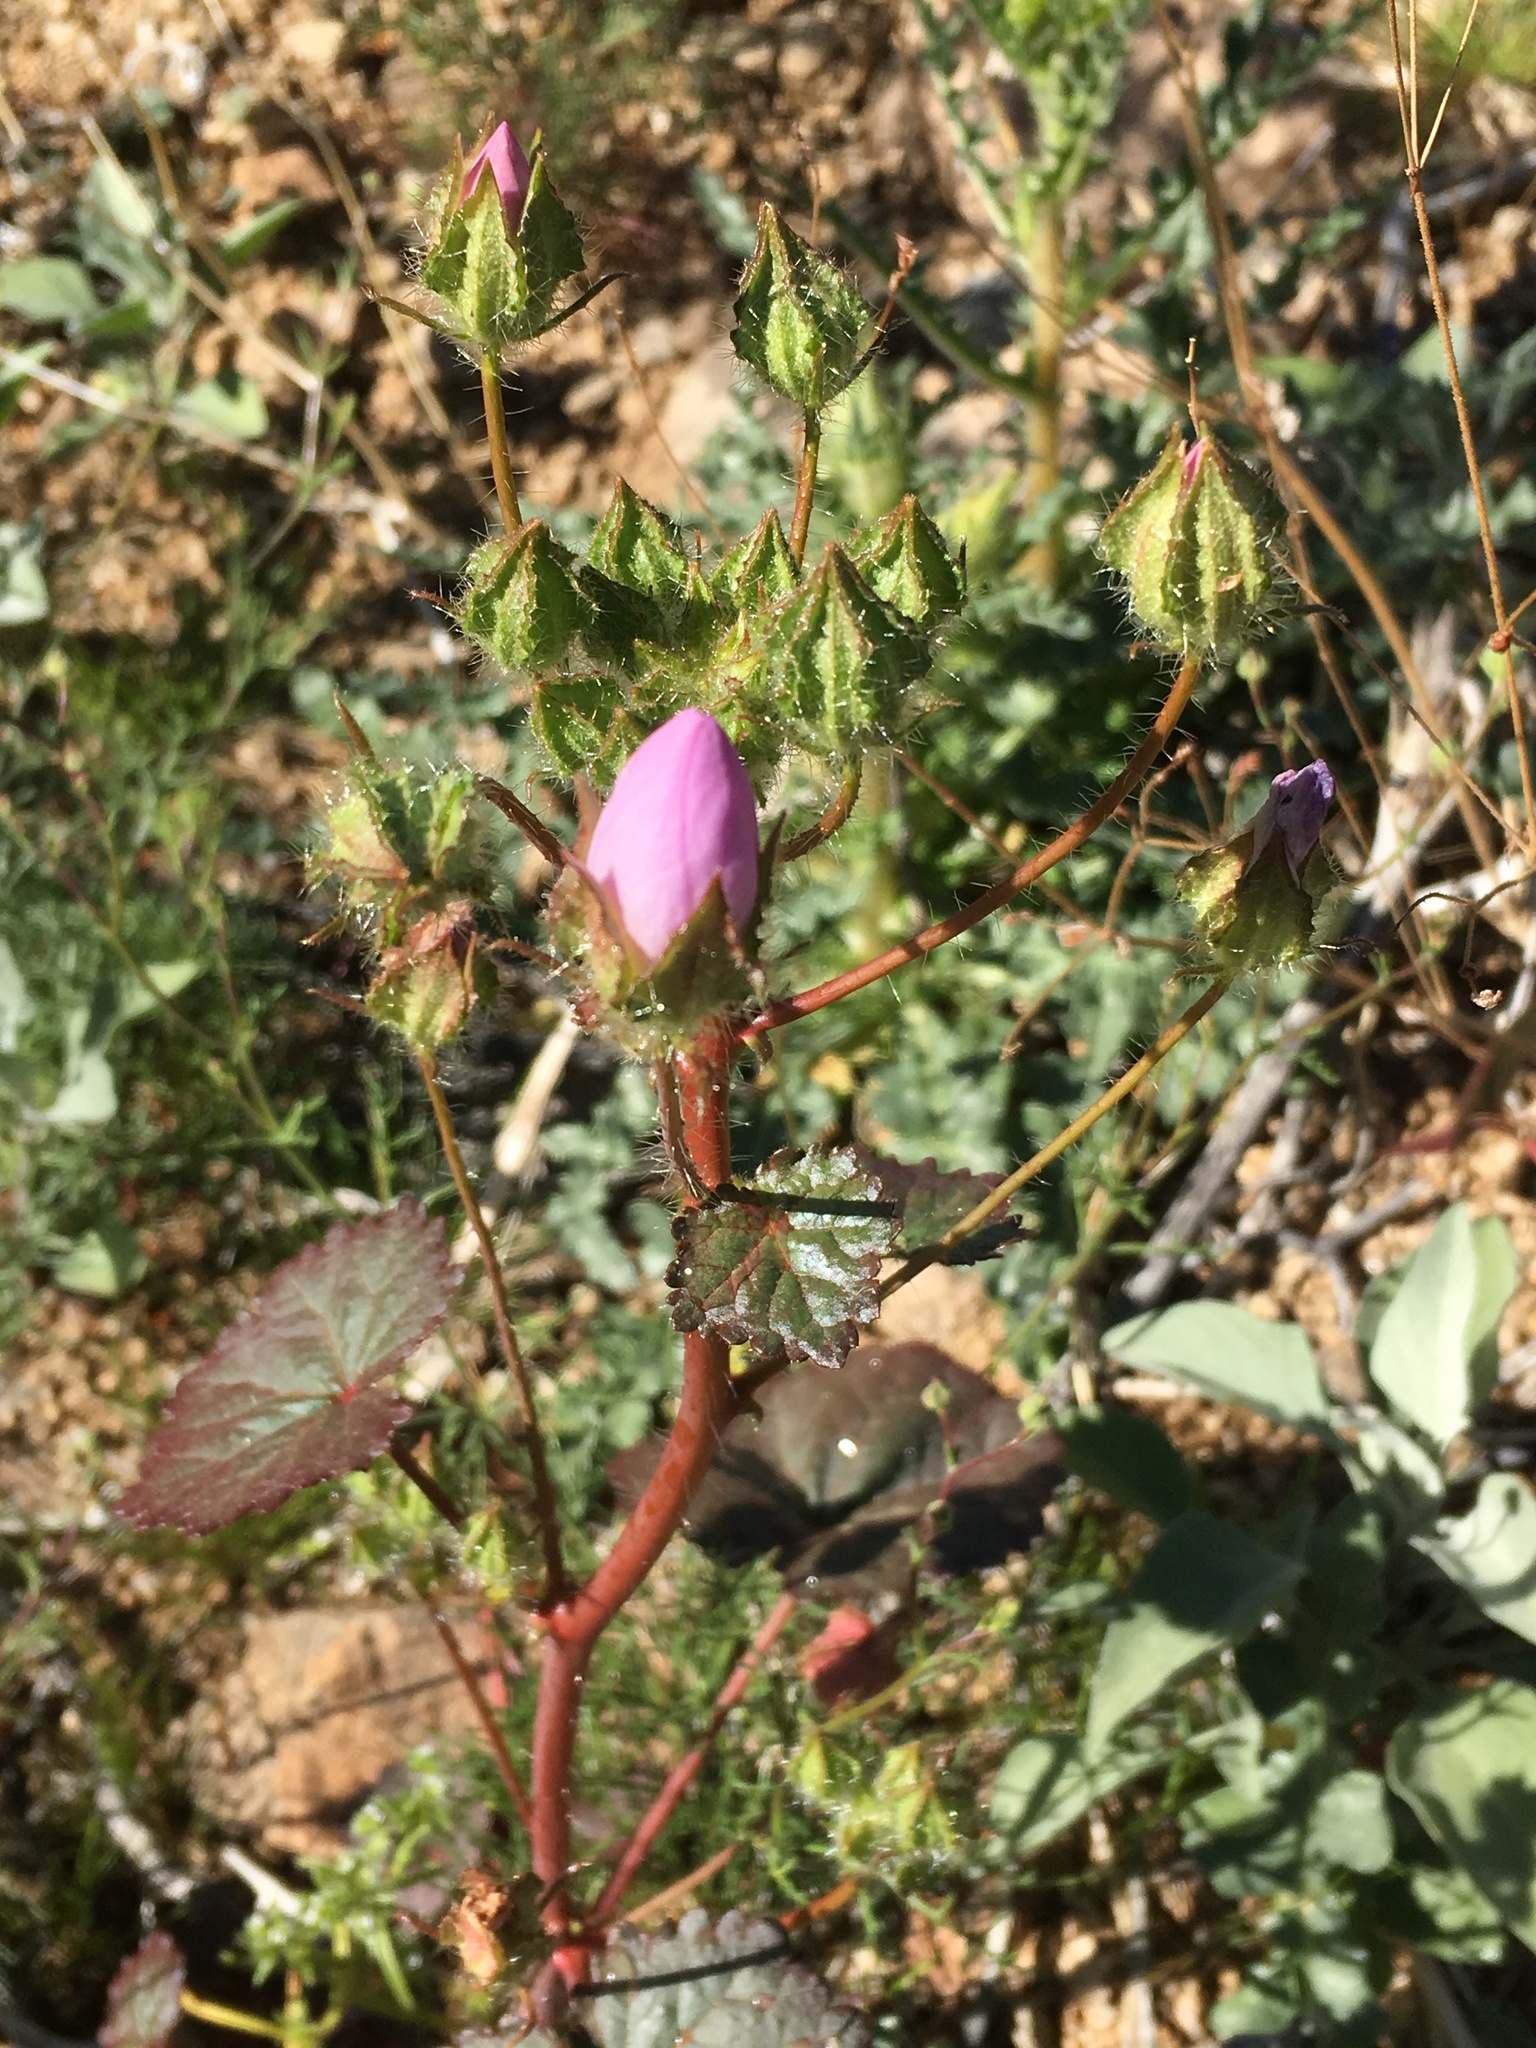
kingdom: Plantae
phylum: Tracheophyta
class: Magnoliopsida
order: Malvales
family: Malvaceae
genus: Eremalche
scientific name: Eremalche rotundifolia
